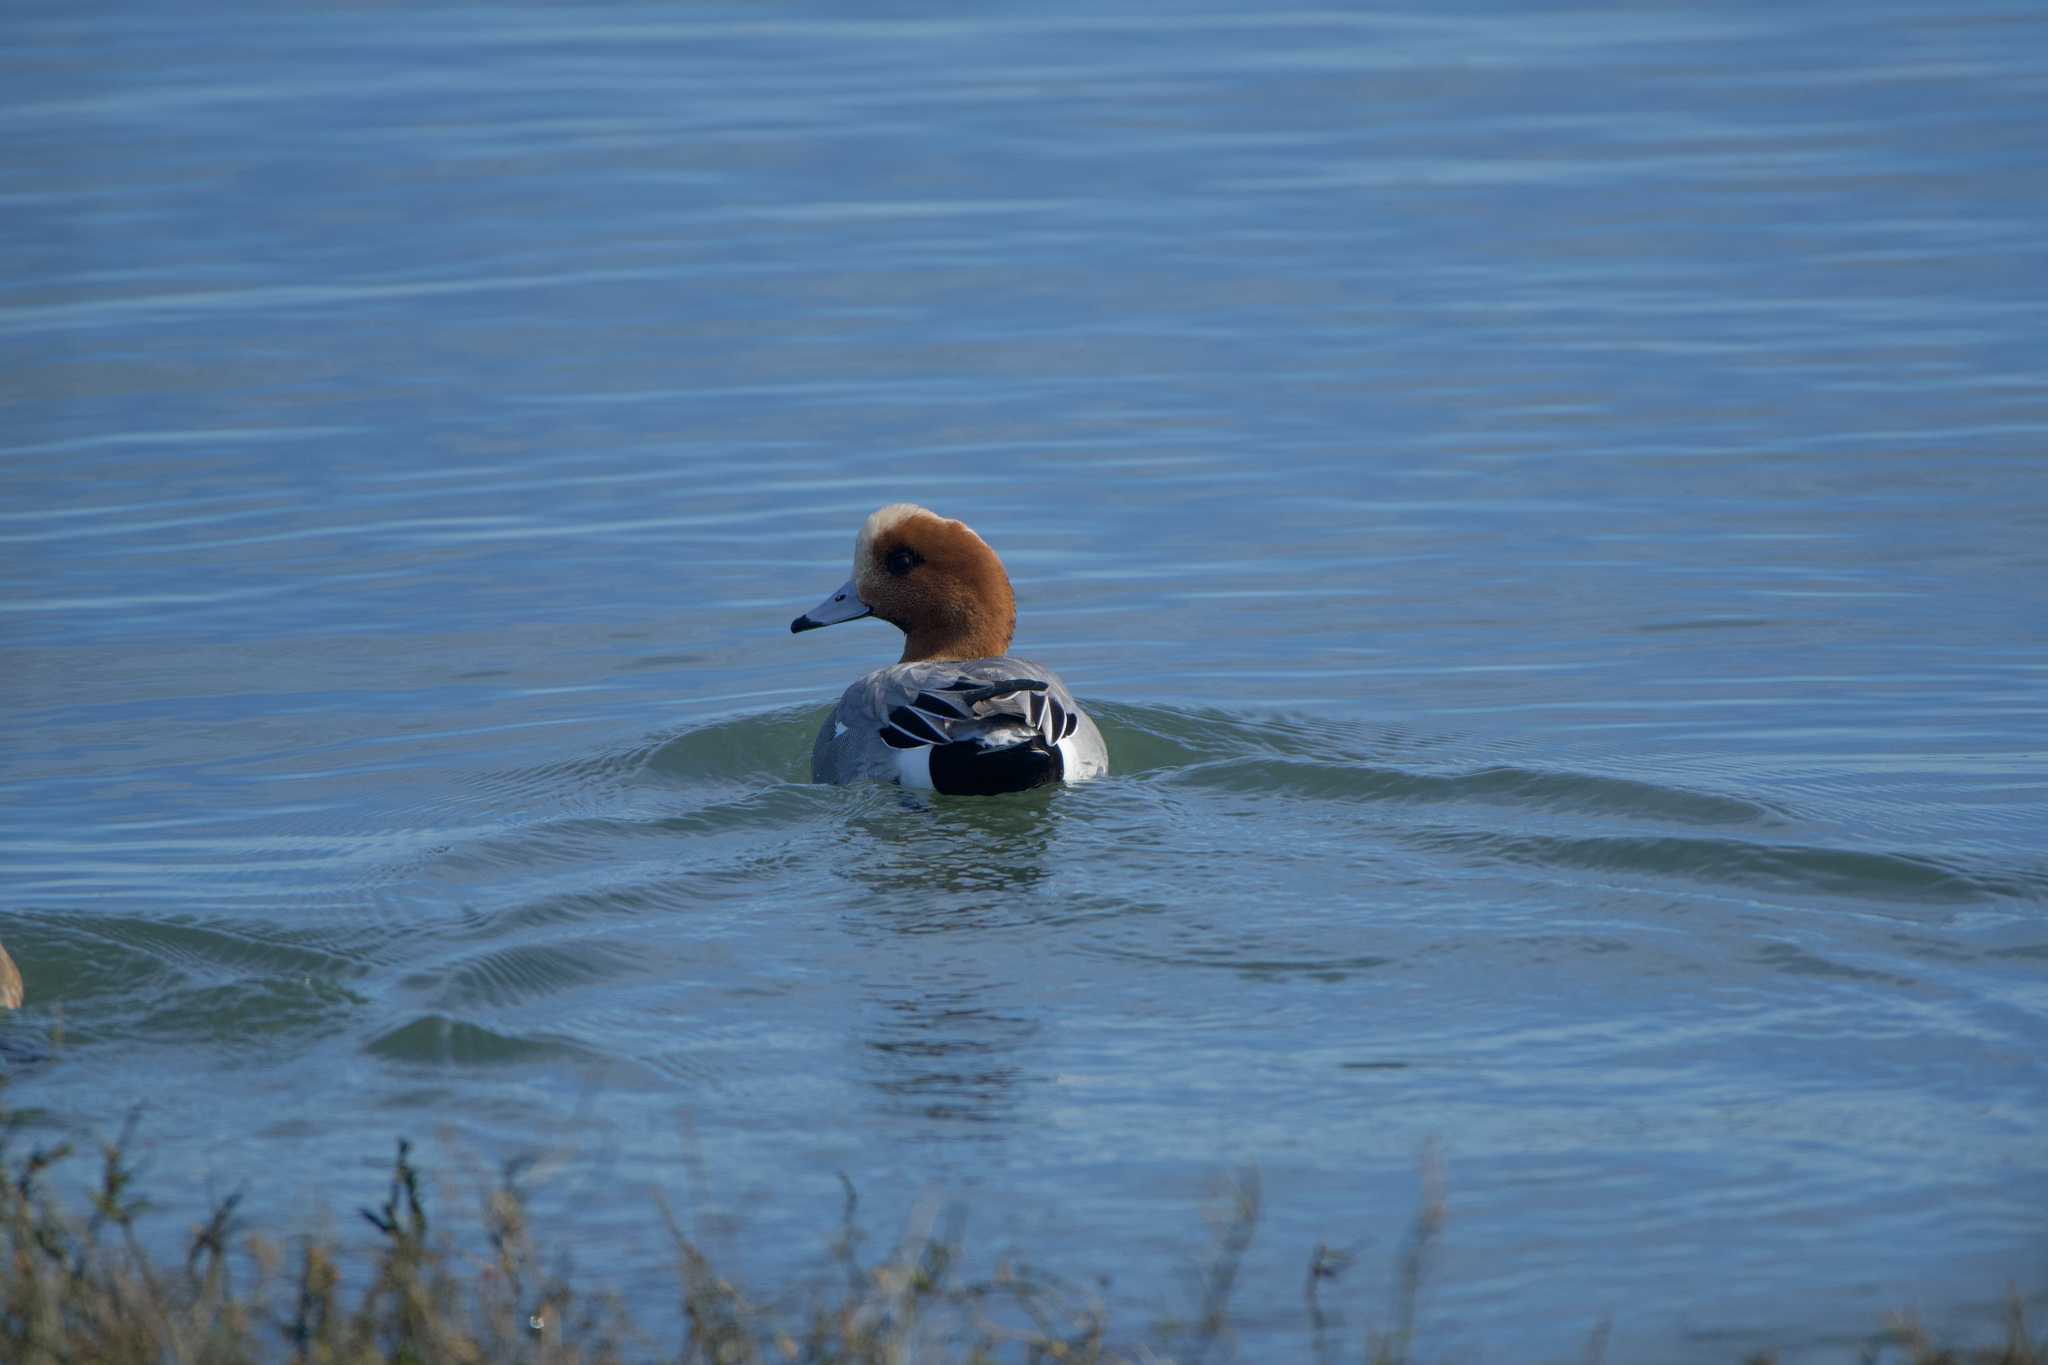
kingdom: Animalia
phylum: Chordata
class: Aves
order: Anseriformes
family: Anatidae
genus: Mareca
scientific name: Mareca penelope
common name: Eurasian wigeon
